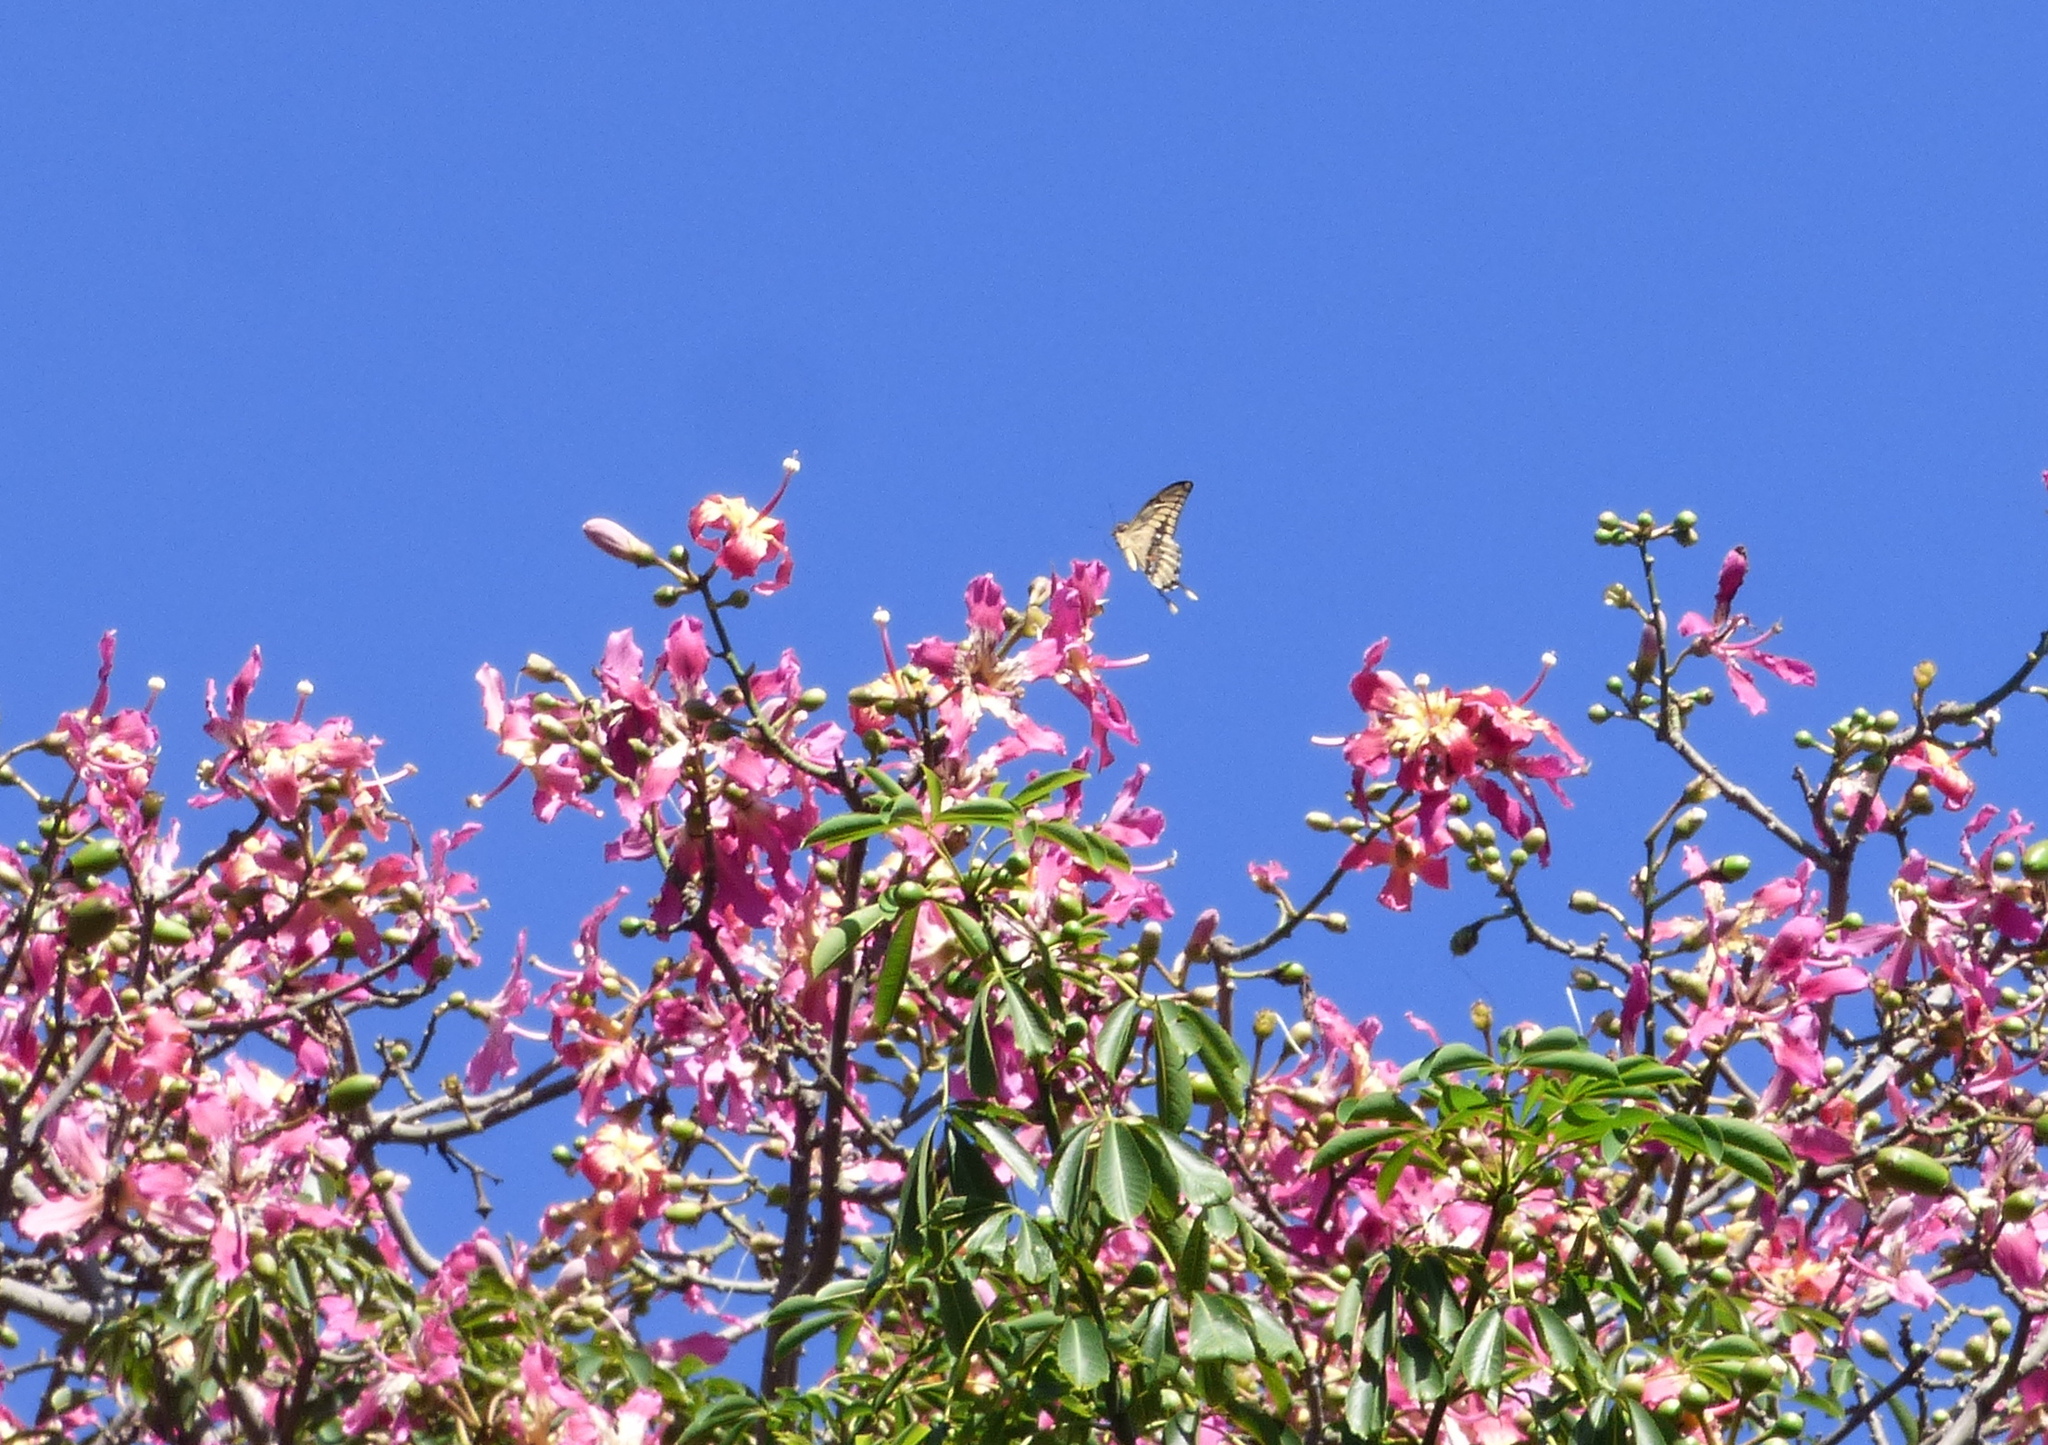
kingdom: Animalia
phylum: Arthropoda
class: Insecta
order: Lepidoptera
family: Papilionidae
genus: Papilio
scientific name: Papilio thoas
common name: King swallowtail
